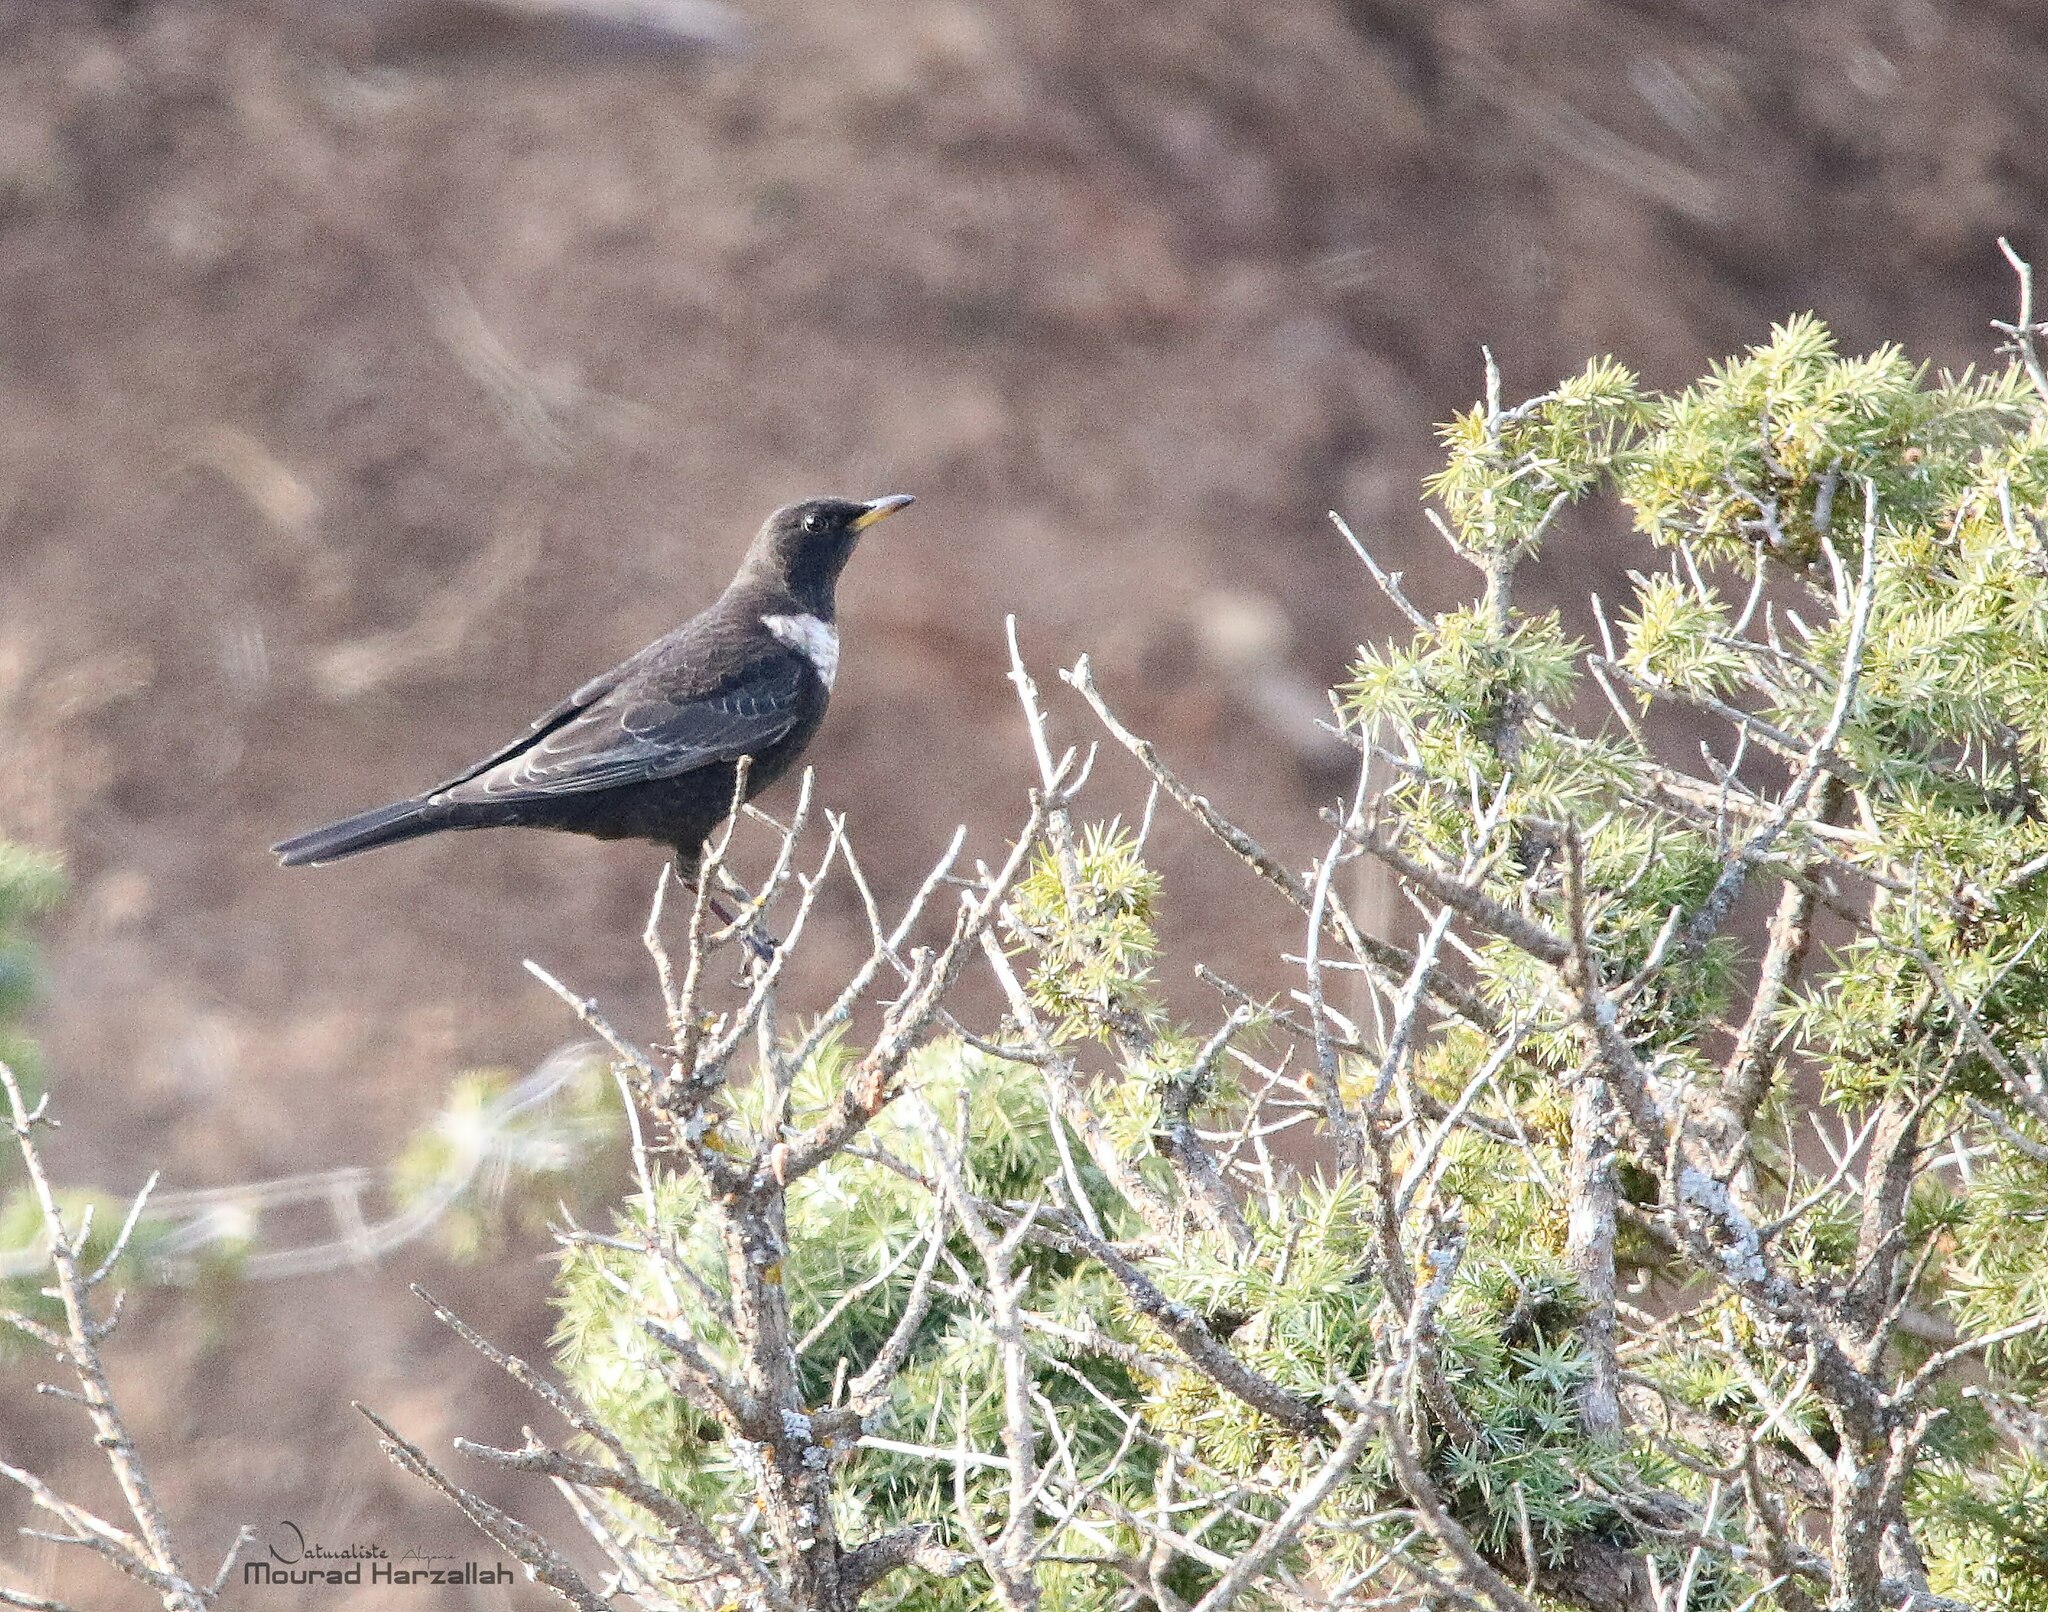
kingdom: Animalia
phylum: Chordata
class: Aves
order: Passeriformes
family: Turdidae
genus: Turdus
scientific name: Turdus torquatus
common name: Ring ouzel
